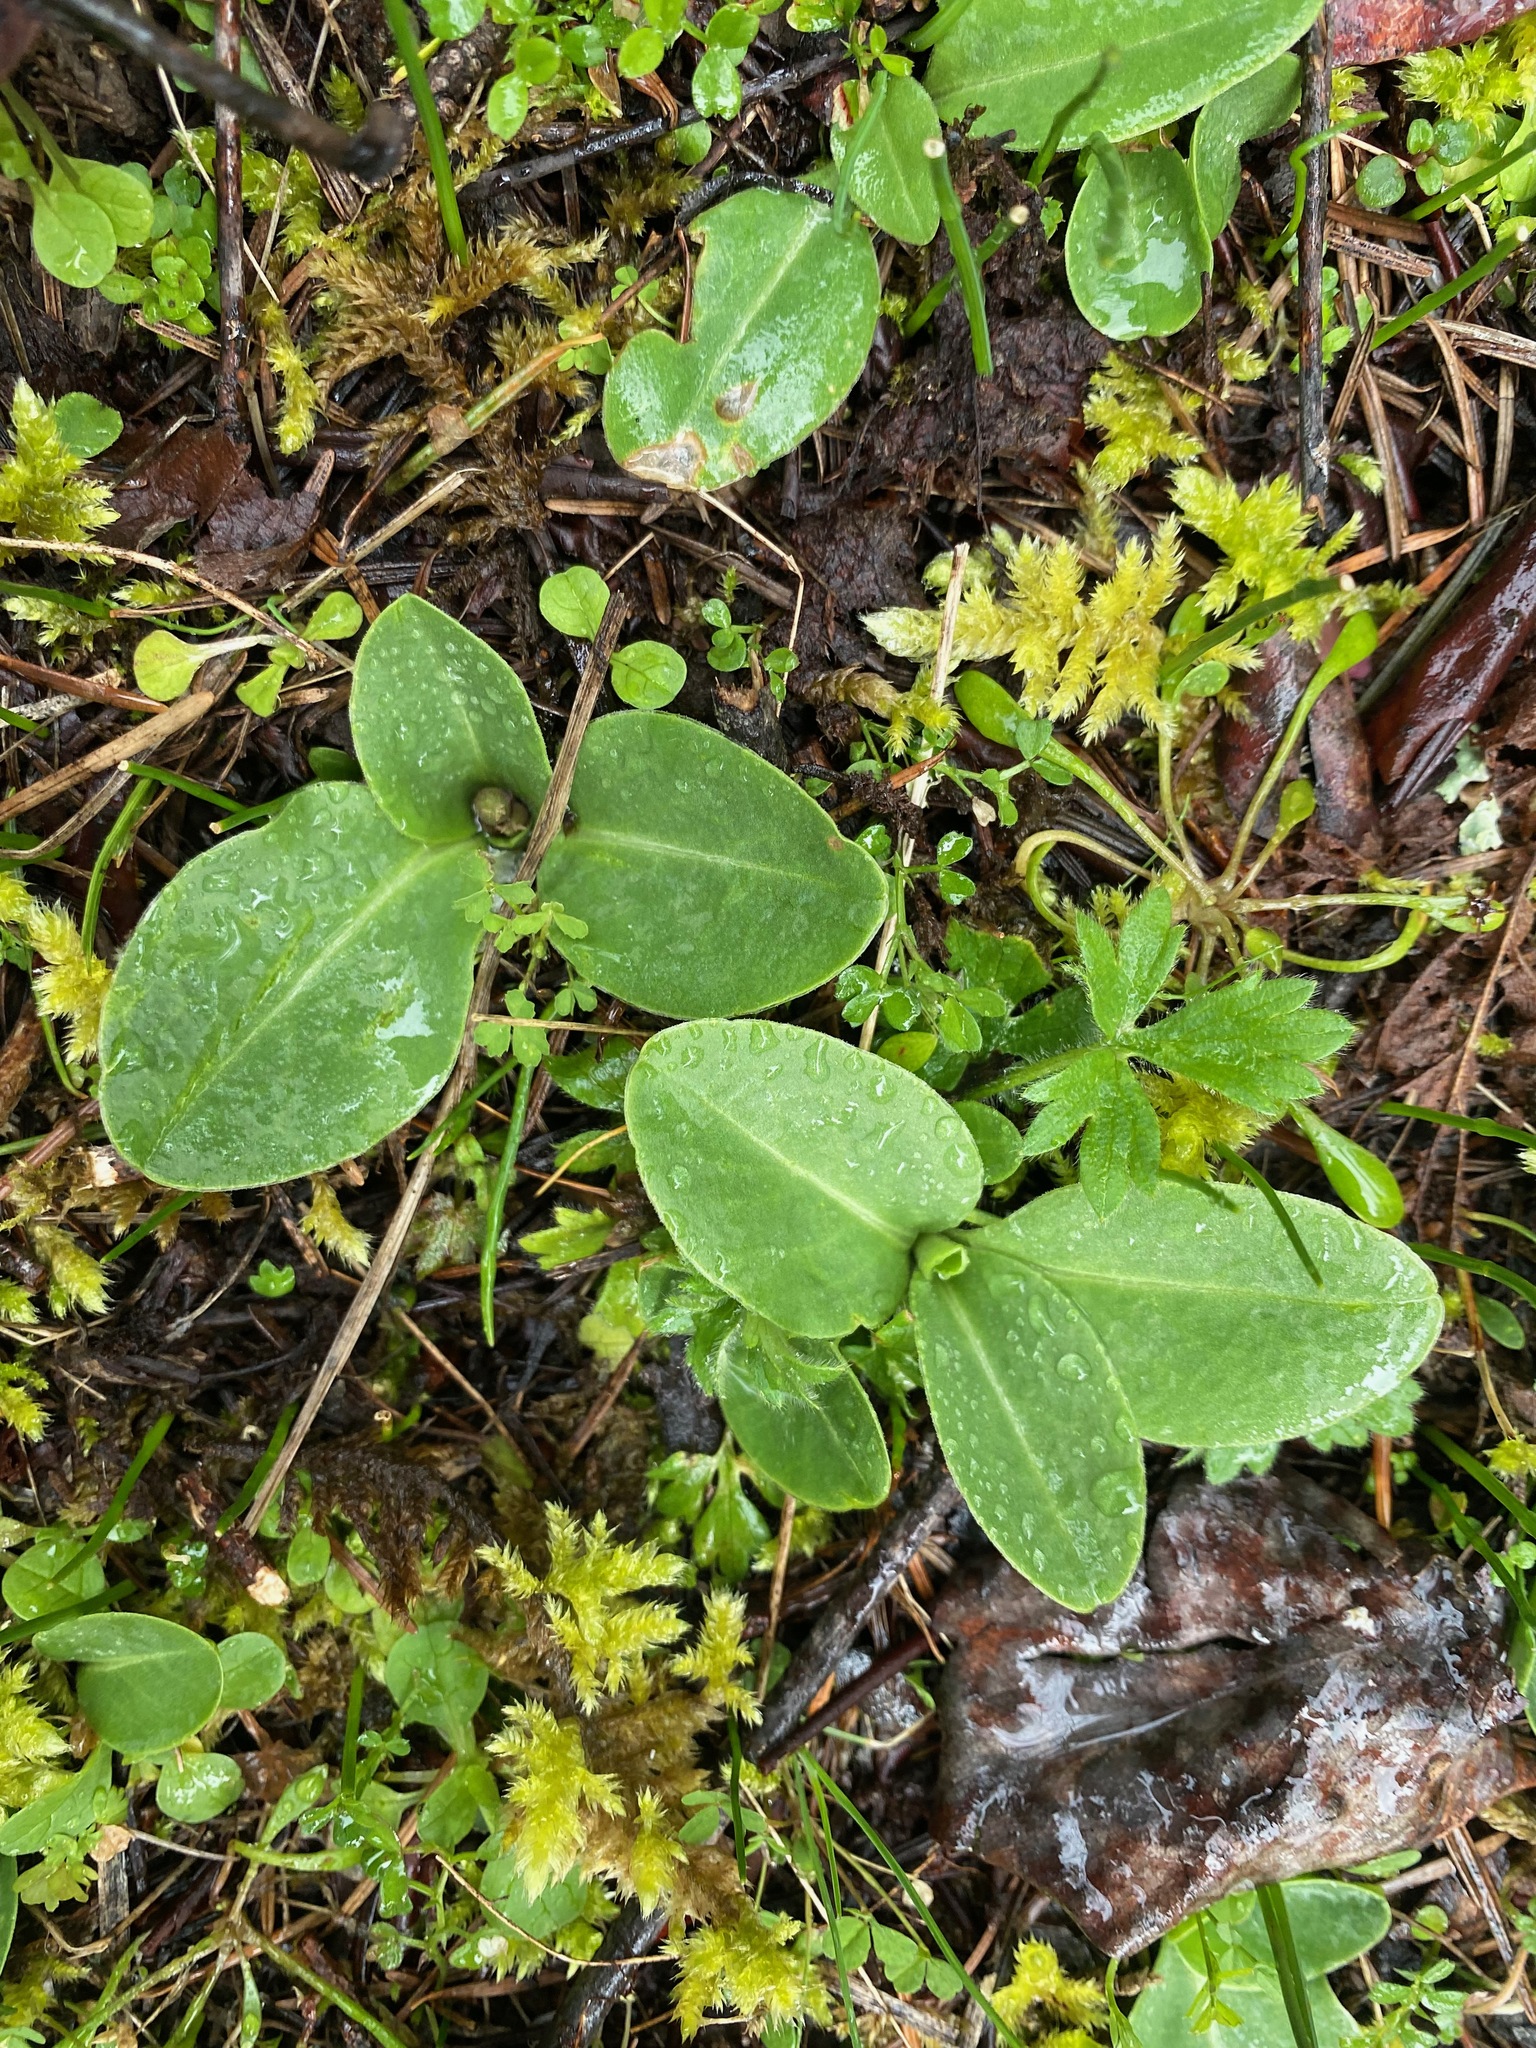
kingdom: Plantae
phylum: Tracheophyta
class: Magnoliopsida
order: Ericales
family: Primulaceae
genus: Dodecatheon
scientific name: Dodecatheon hendersonii
